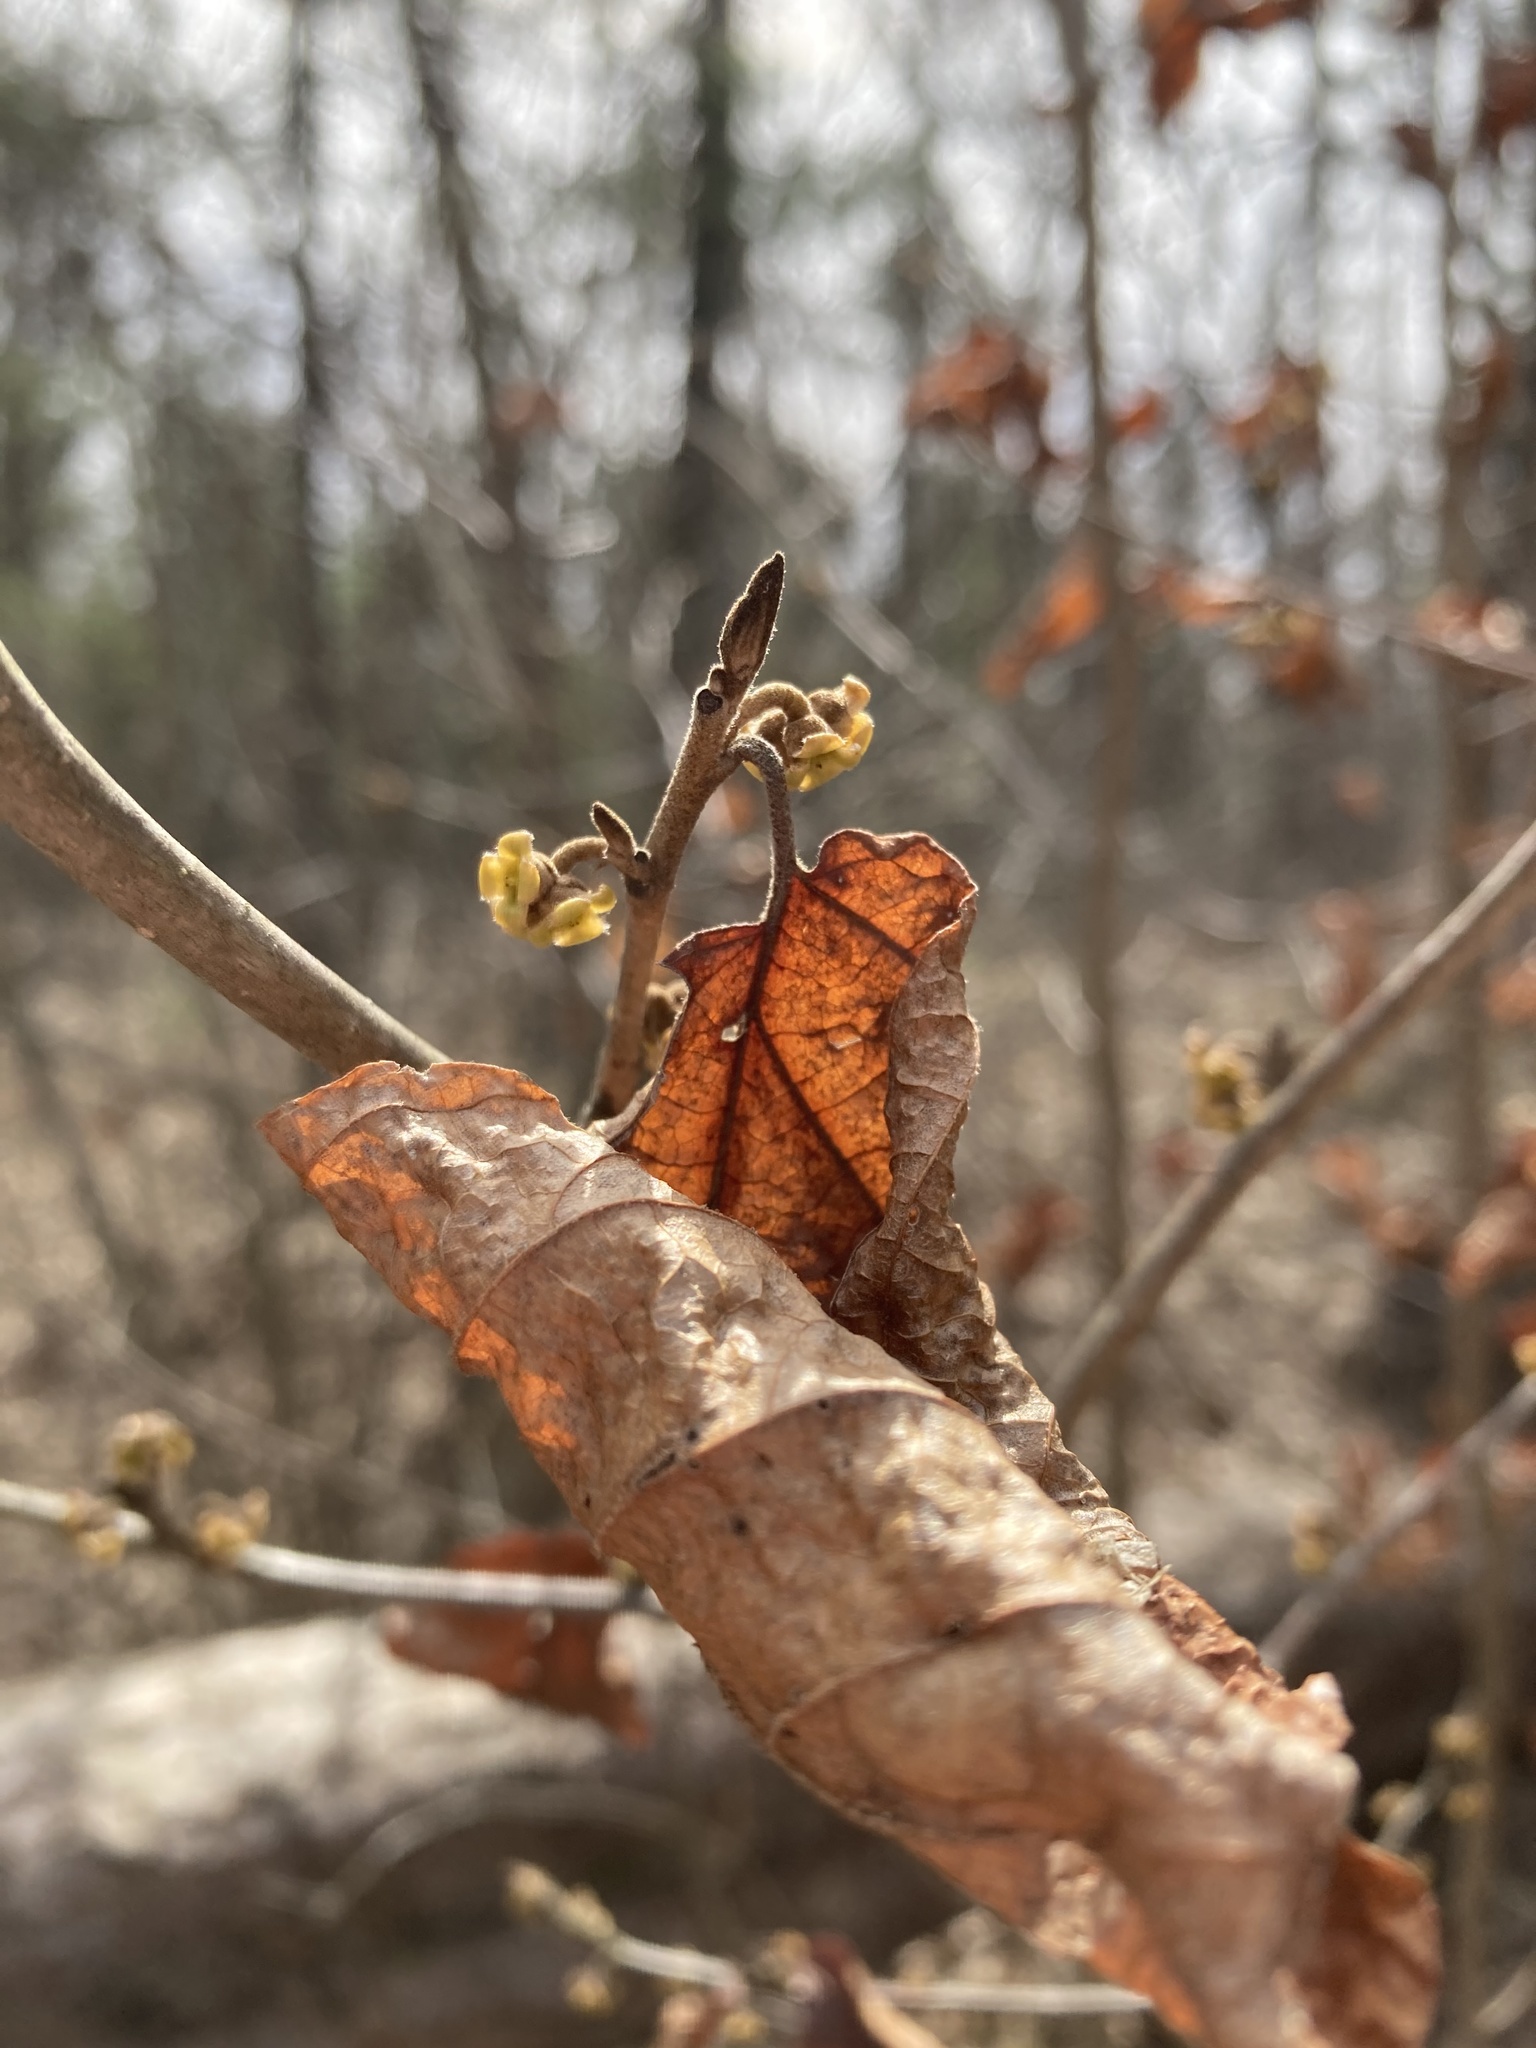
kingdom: Plantae
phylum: Tracheophyta
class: Magnoliopsida
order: Saxifragales
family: Hamamelidaceae
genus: Hamamelis
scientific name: Hamamelis virginiana
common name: Witch-hazel
